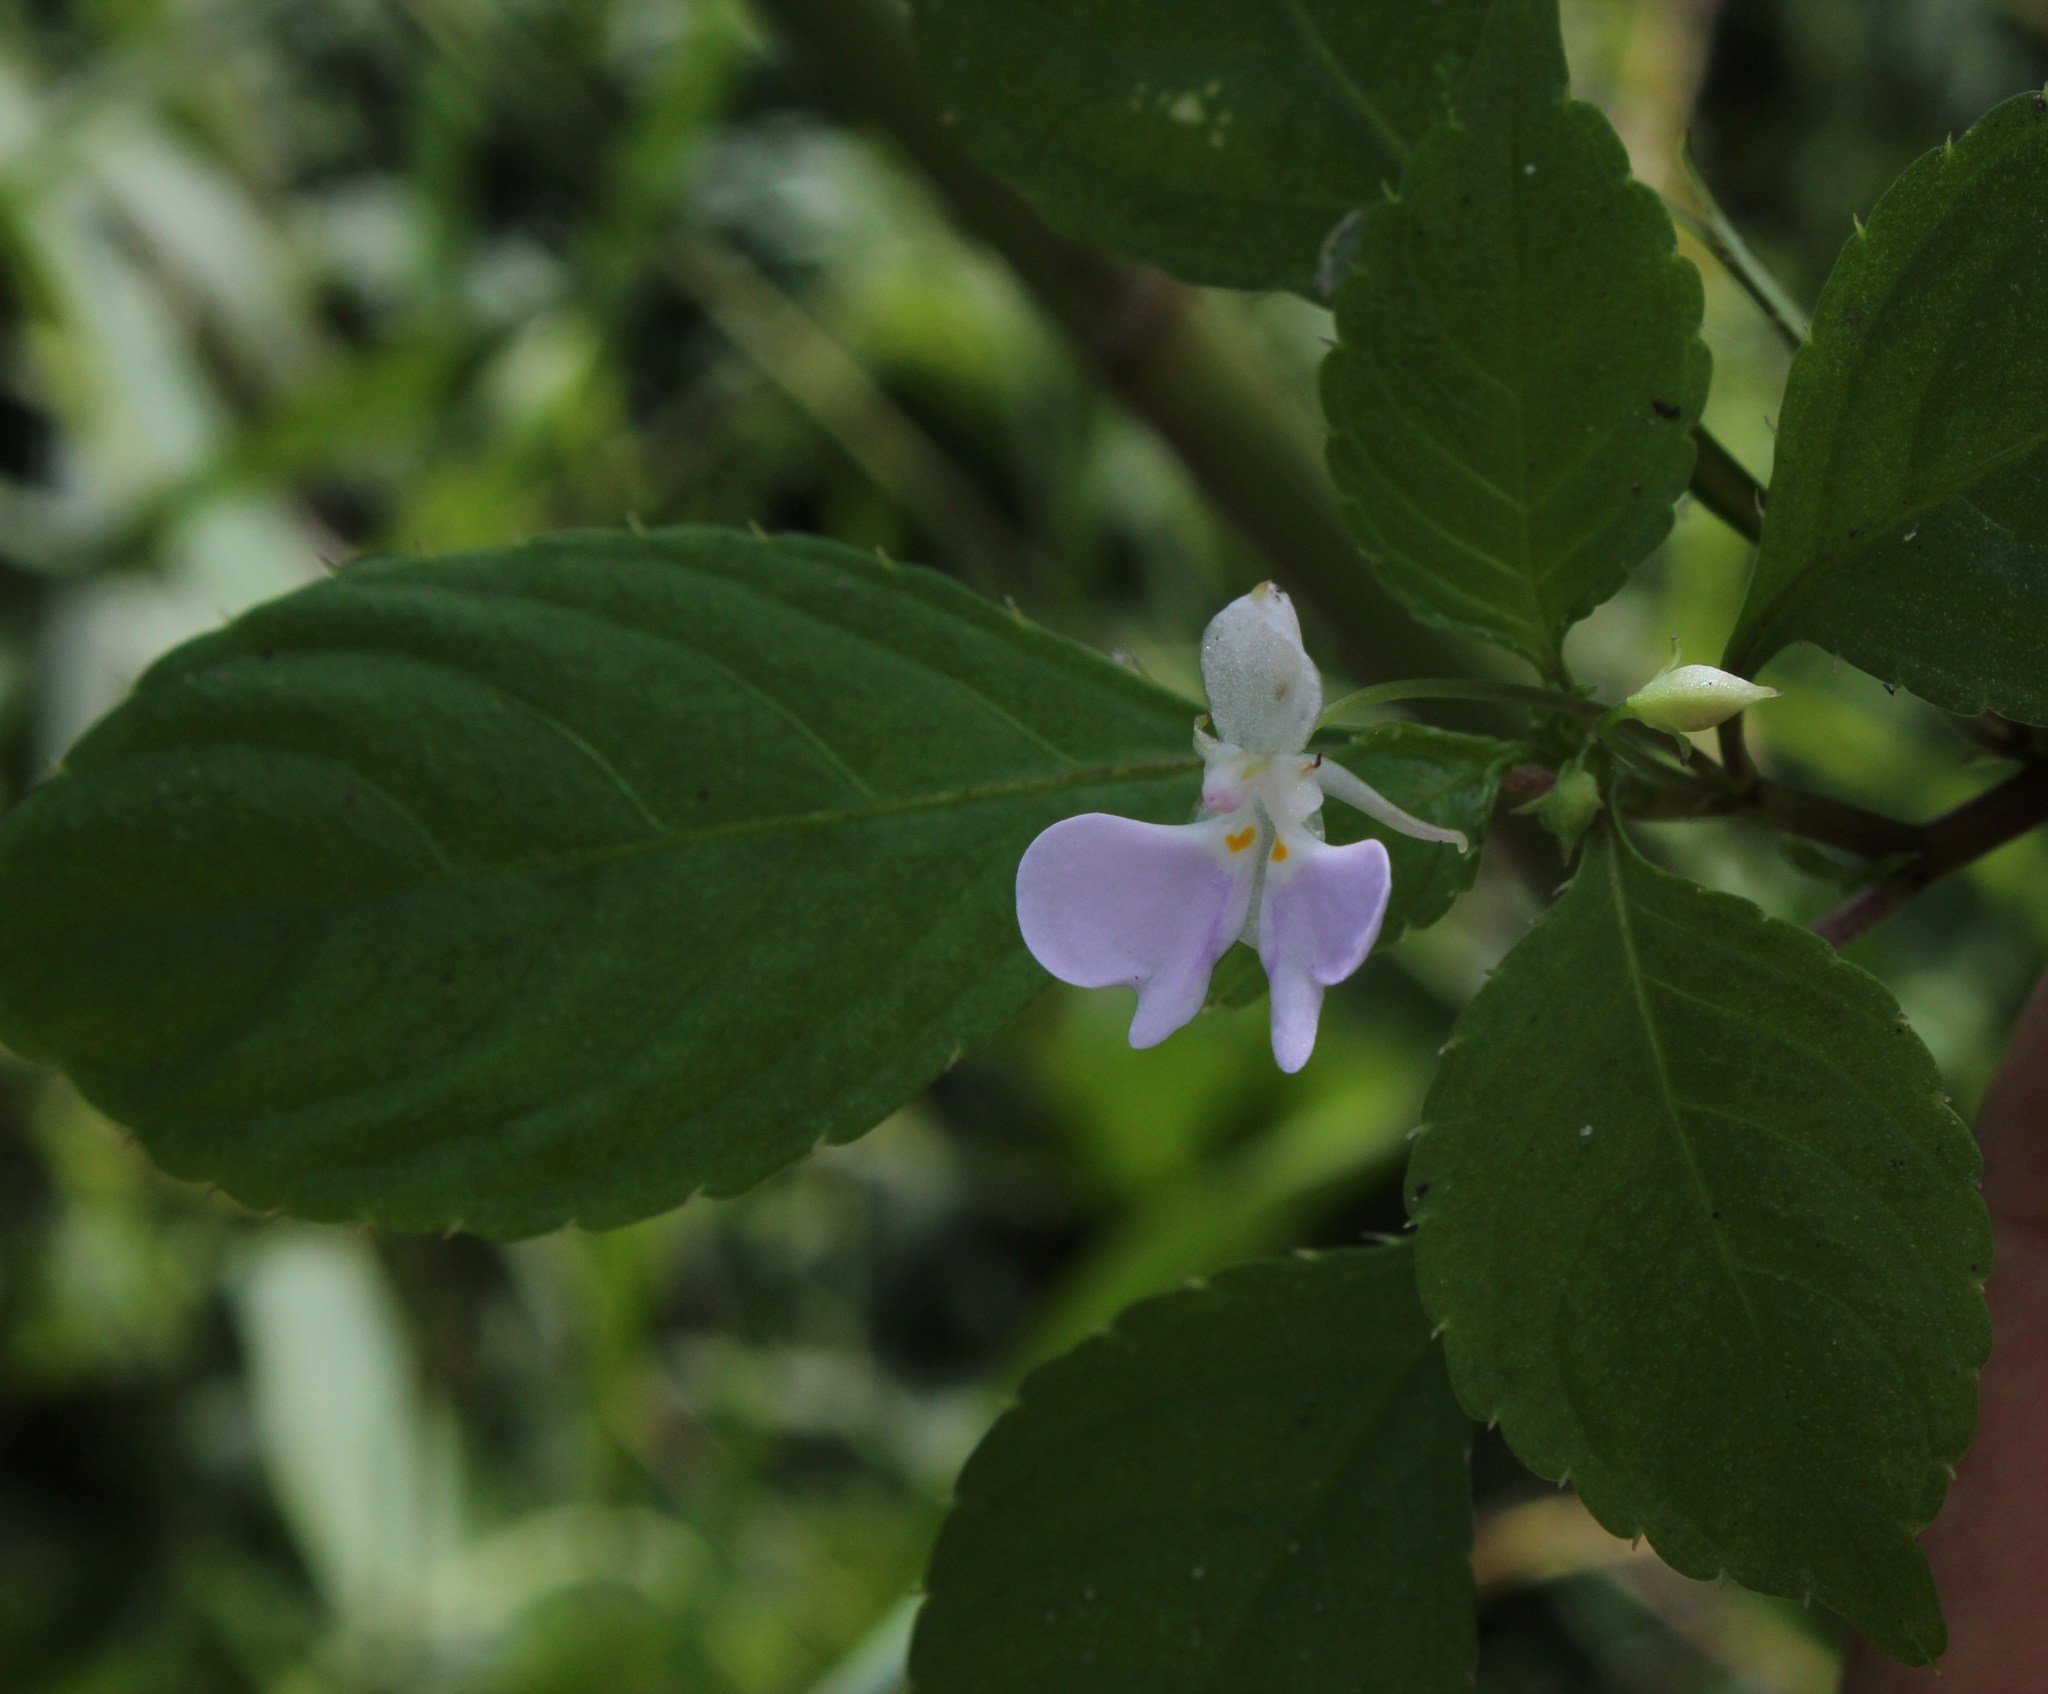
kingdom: Plantae
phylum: Tracheophyta
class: Magnoliopsida
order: Ericales
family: Balsaminaceae
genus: Impatiens
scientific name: Impatiens hochstetteri
